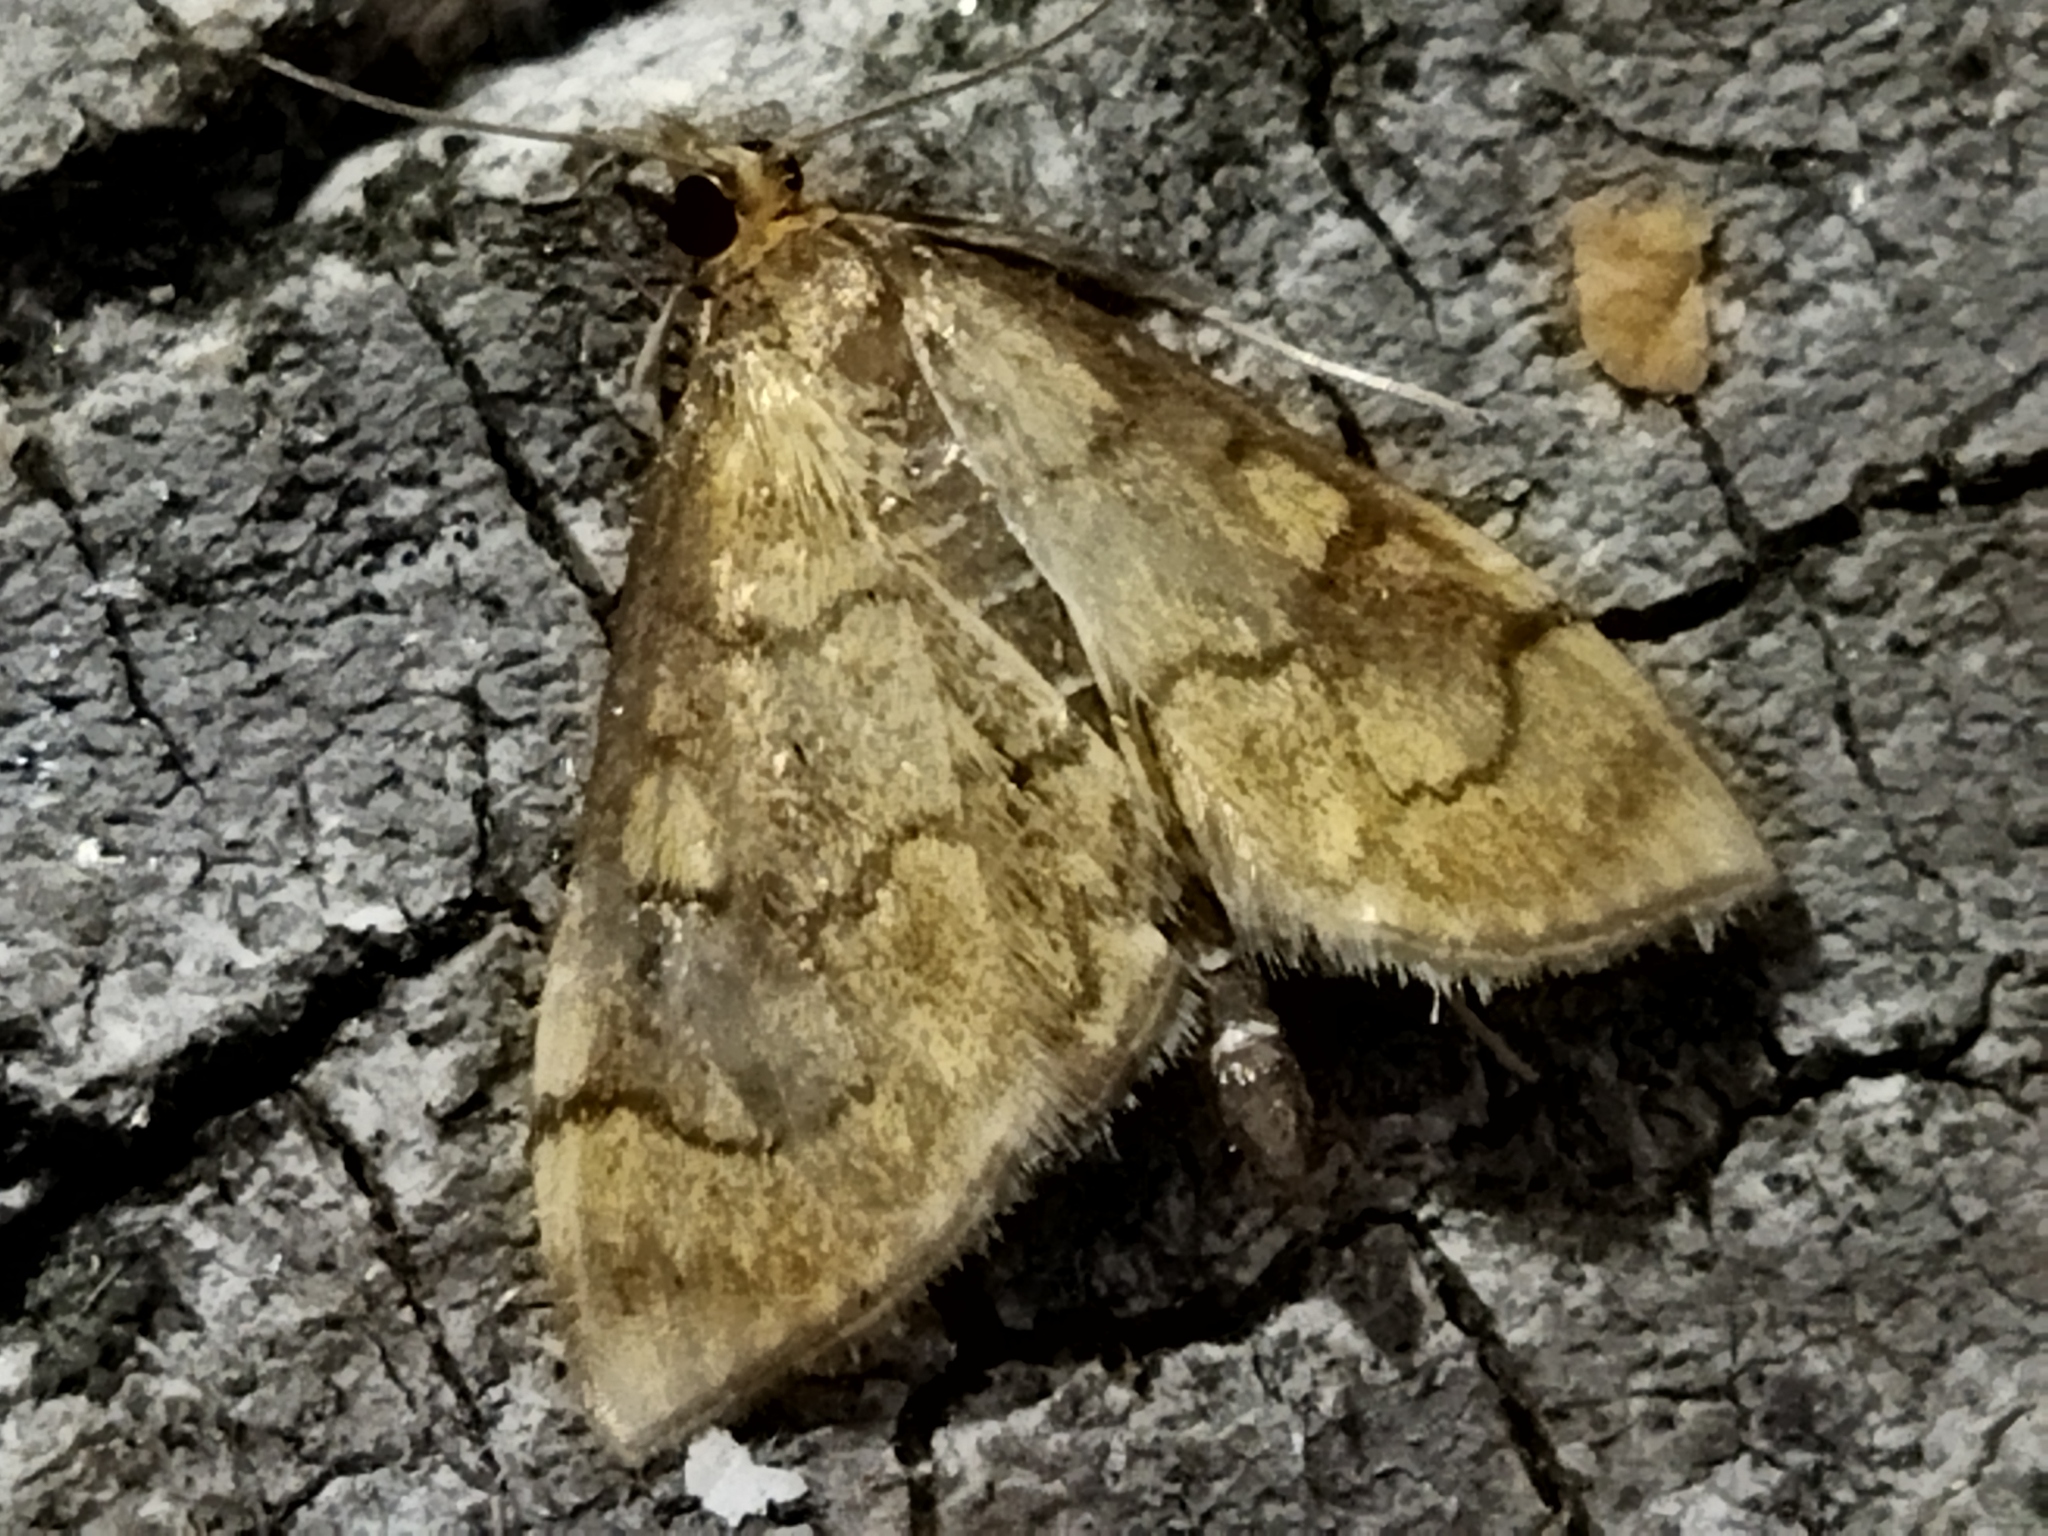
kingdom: Animalia
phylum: Arthropoda
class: Insecta
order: Lepidoptera
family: Crambidae
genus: Anania
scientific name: Anania verbascalis
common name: Golden pearl
